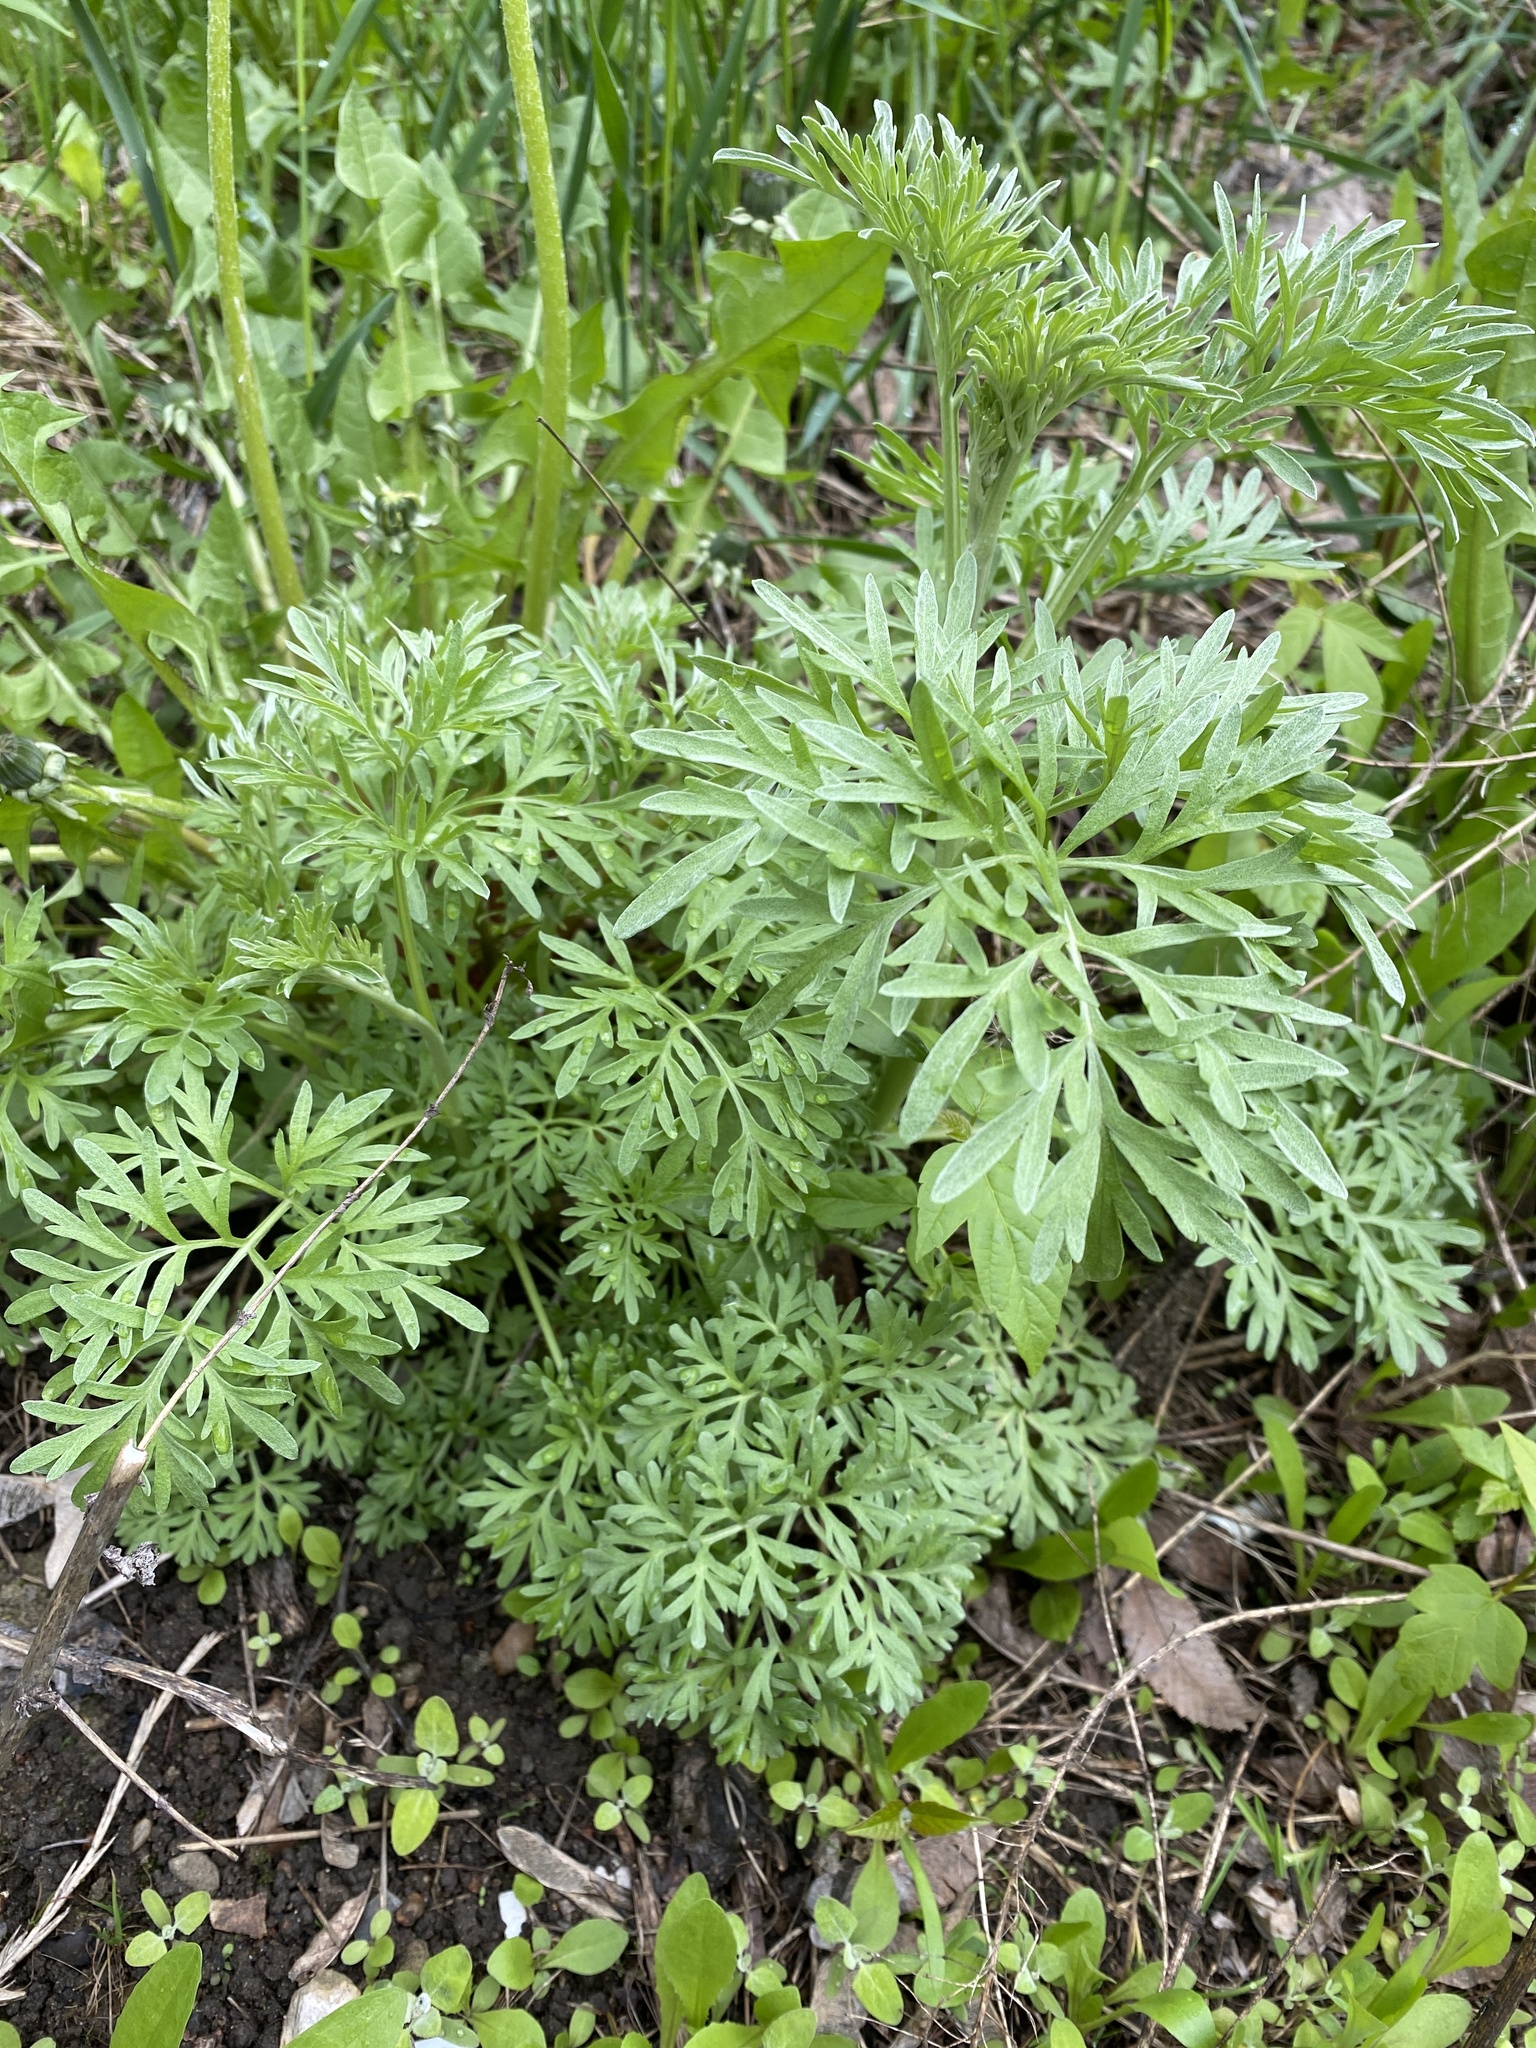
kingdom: Plantae
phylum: Tracheophyta
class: Magnoliopsida
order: Asterales
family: Asteraceae
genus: Artemisia
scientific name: Artemisia absinthium
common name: Wormwood
